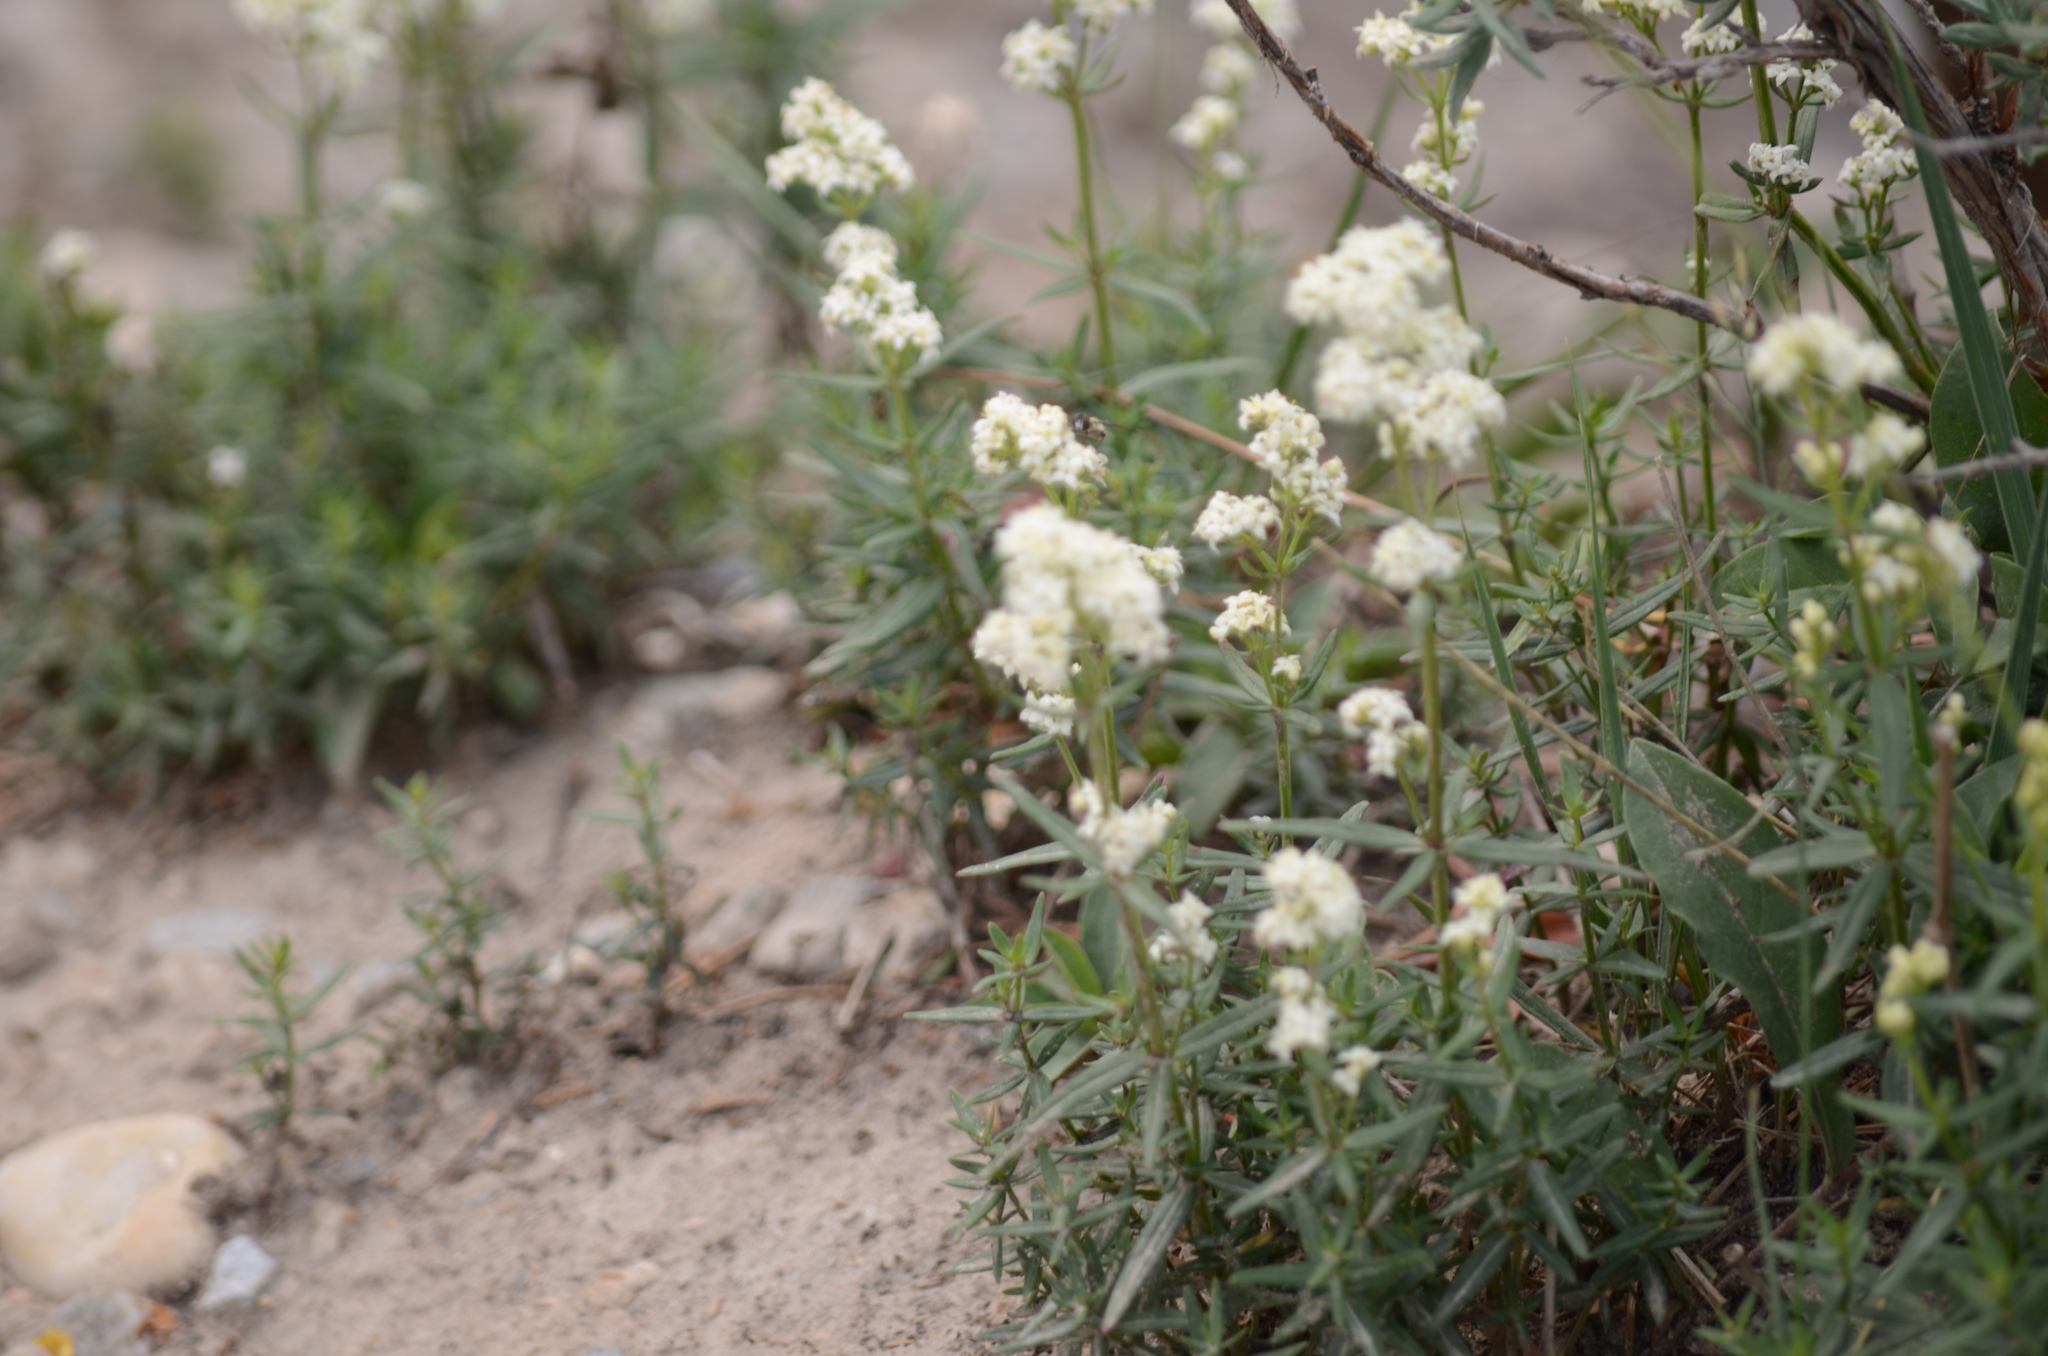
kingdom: Plantae
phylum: Tracheophyta
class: Magnoliopsida
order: Gentianales
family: Rubiaceae
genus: Galium
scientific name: Galium boreale
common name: Northern bedstraw
